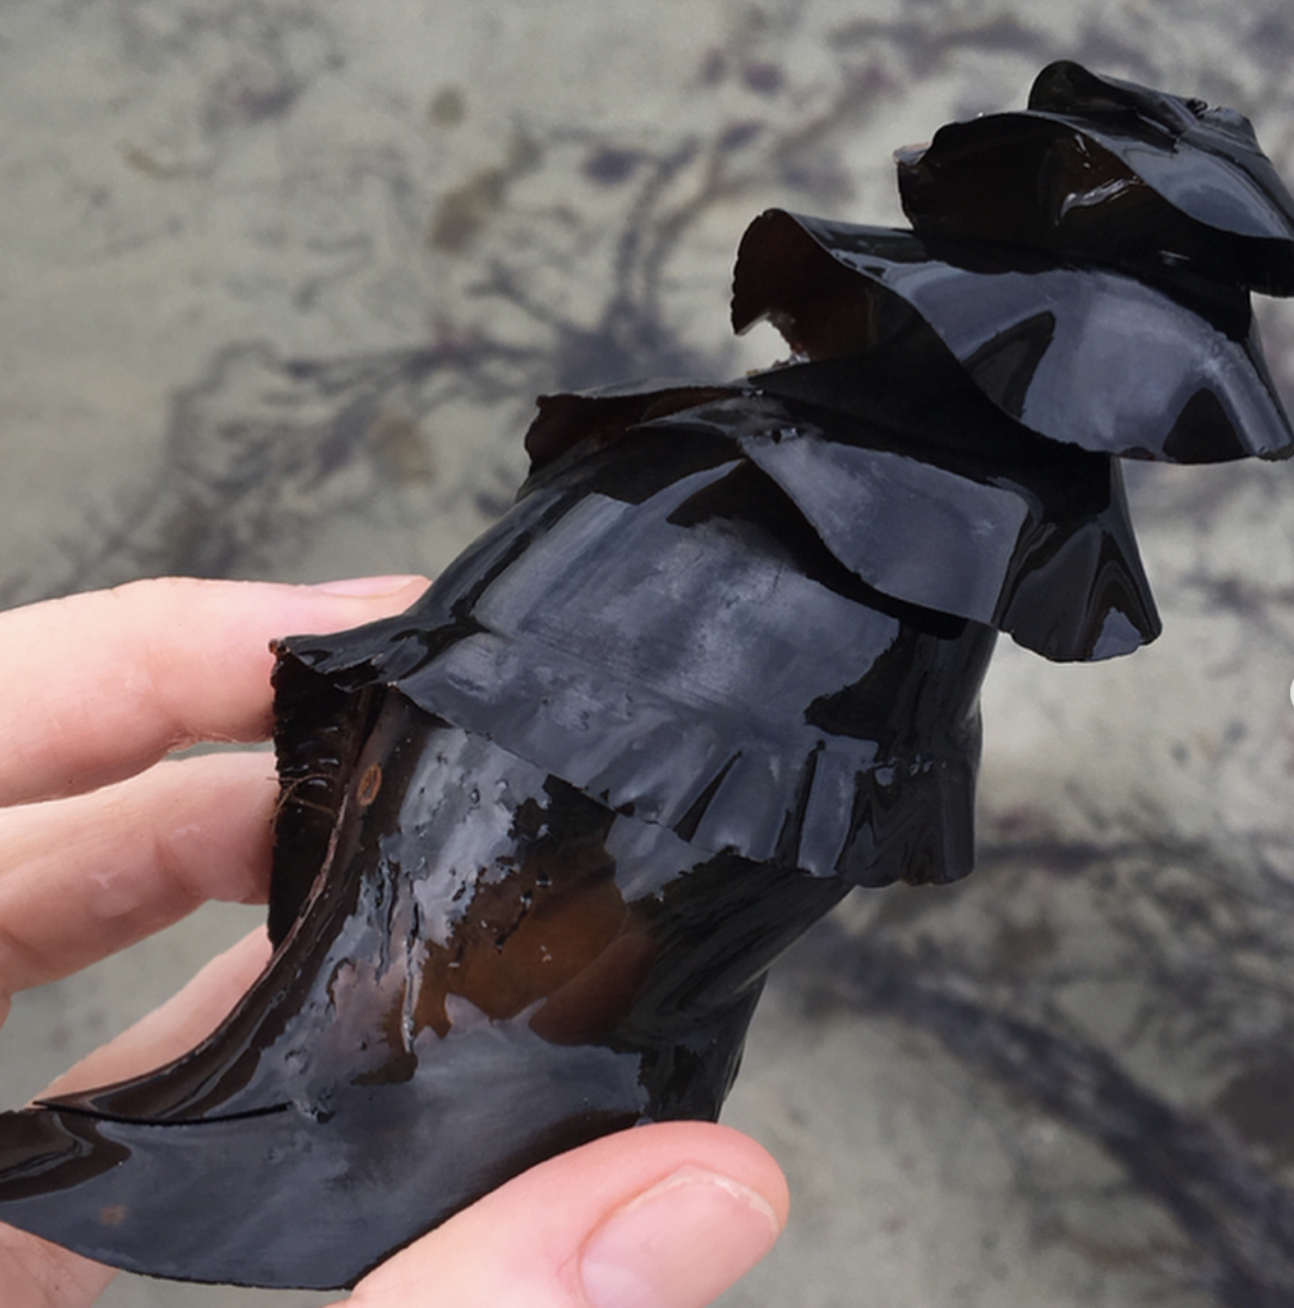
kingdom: Animalia
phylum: Chordata
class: Elasmobranchii
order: Heterodontiformes
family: Heterodontidae
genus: Heterodontus
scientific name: Heterodontus francisci
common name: Horn shark
